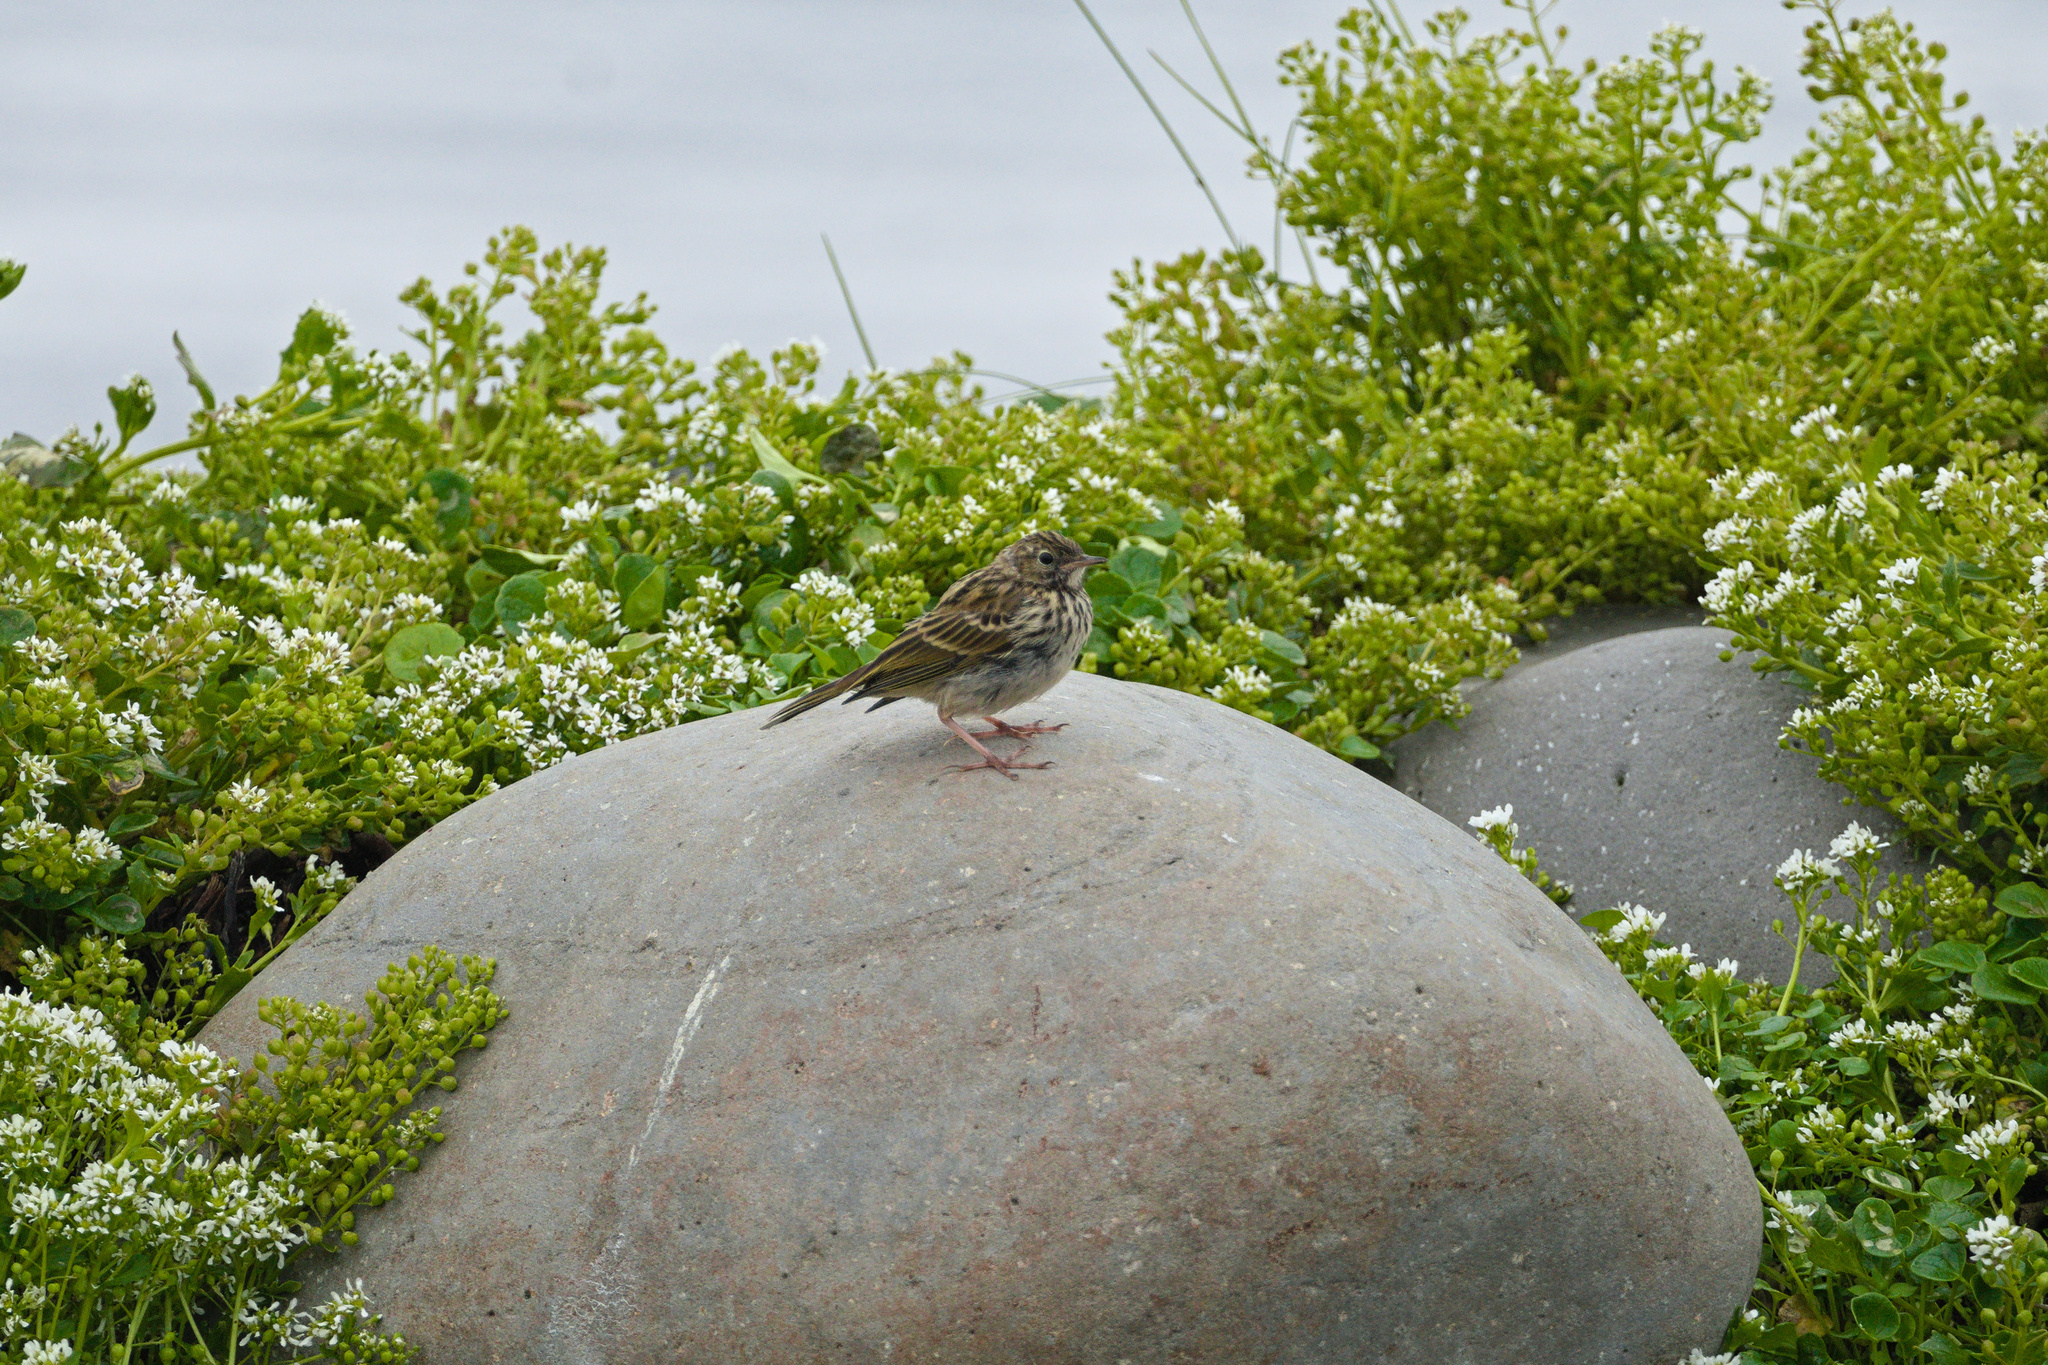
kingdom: Animalia
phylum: Chordata
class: Aves
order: Passeriformes
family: Motacillidae
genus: Anthus
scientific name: Anthus pratensis
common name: Meadow pipit
